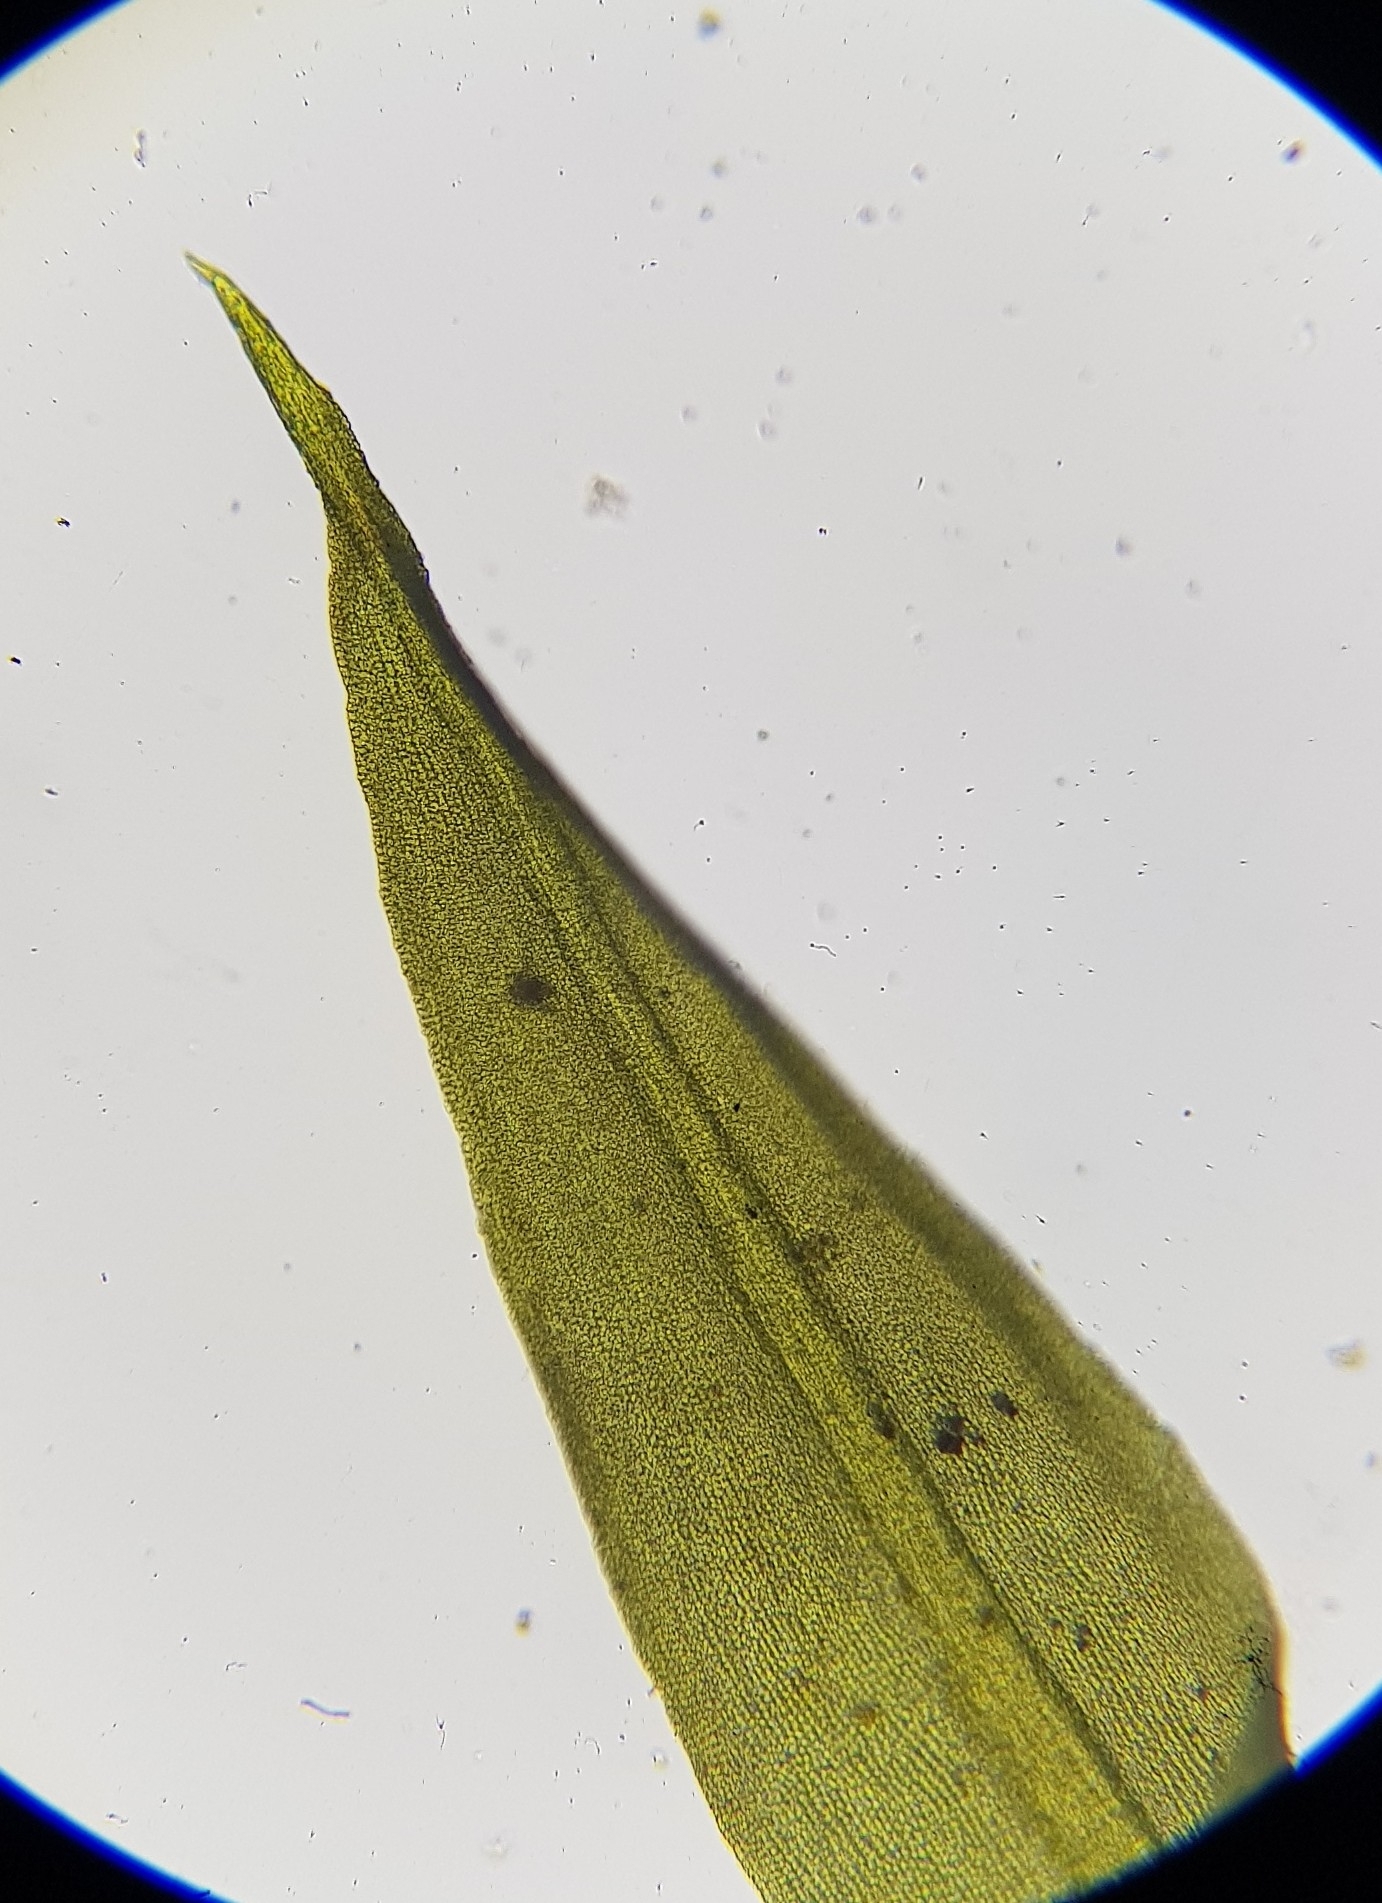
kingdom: Plantae
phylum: Bryophyta
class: Bryopsida
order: Pottiales
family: Pottiaceae
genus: Trichostomum
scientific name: Trichostomum brachydontium
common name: Variable crisp-moss
